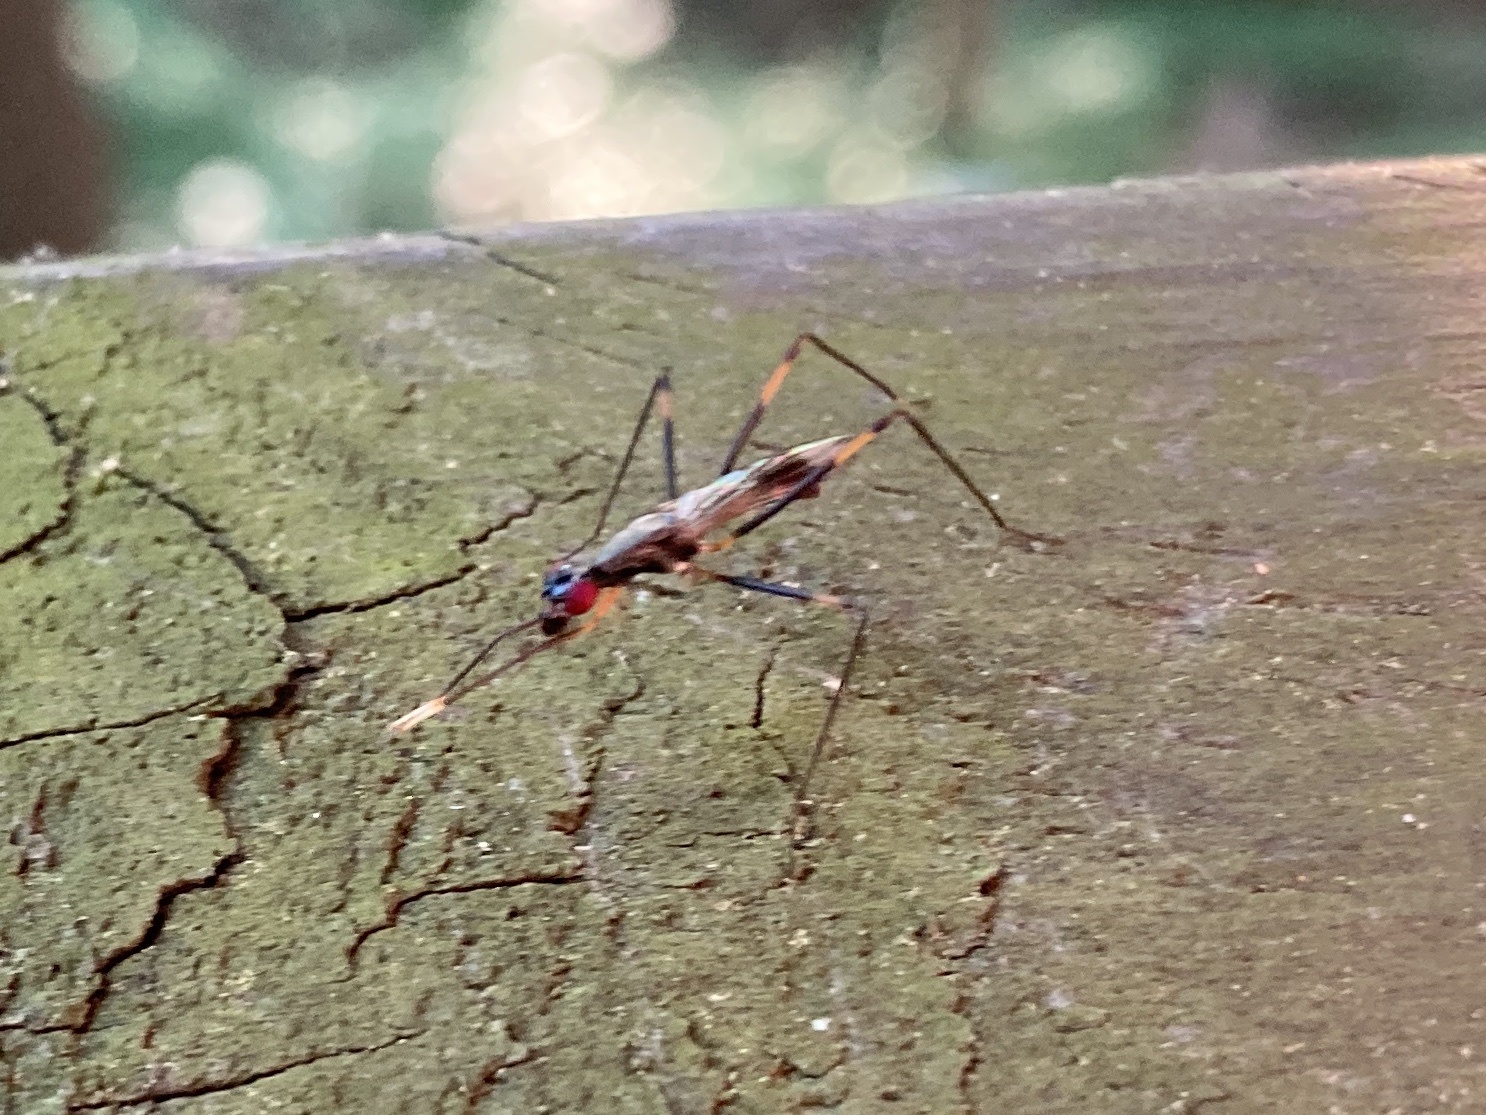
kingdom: Animalia
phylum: Arthropoda
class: Insecta
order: Diptera
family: Micropezidae
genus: Rainieria
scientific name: Rainieria antennaepes
